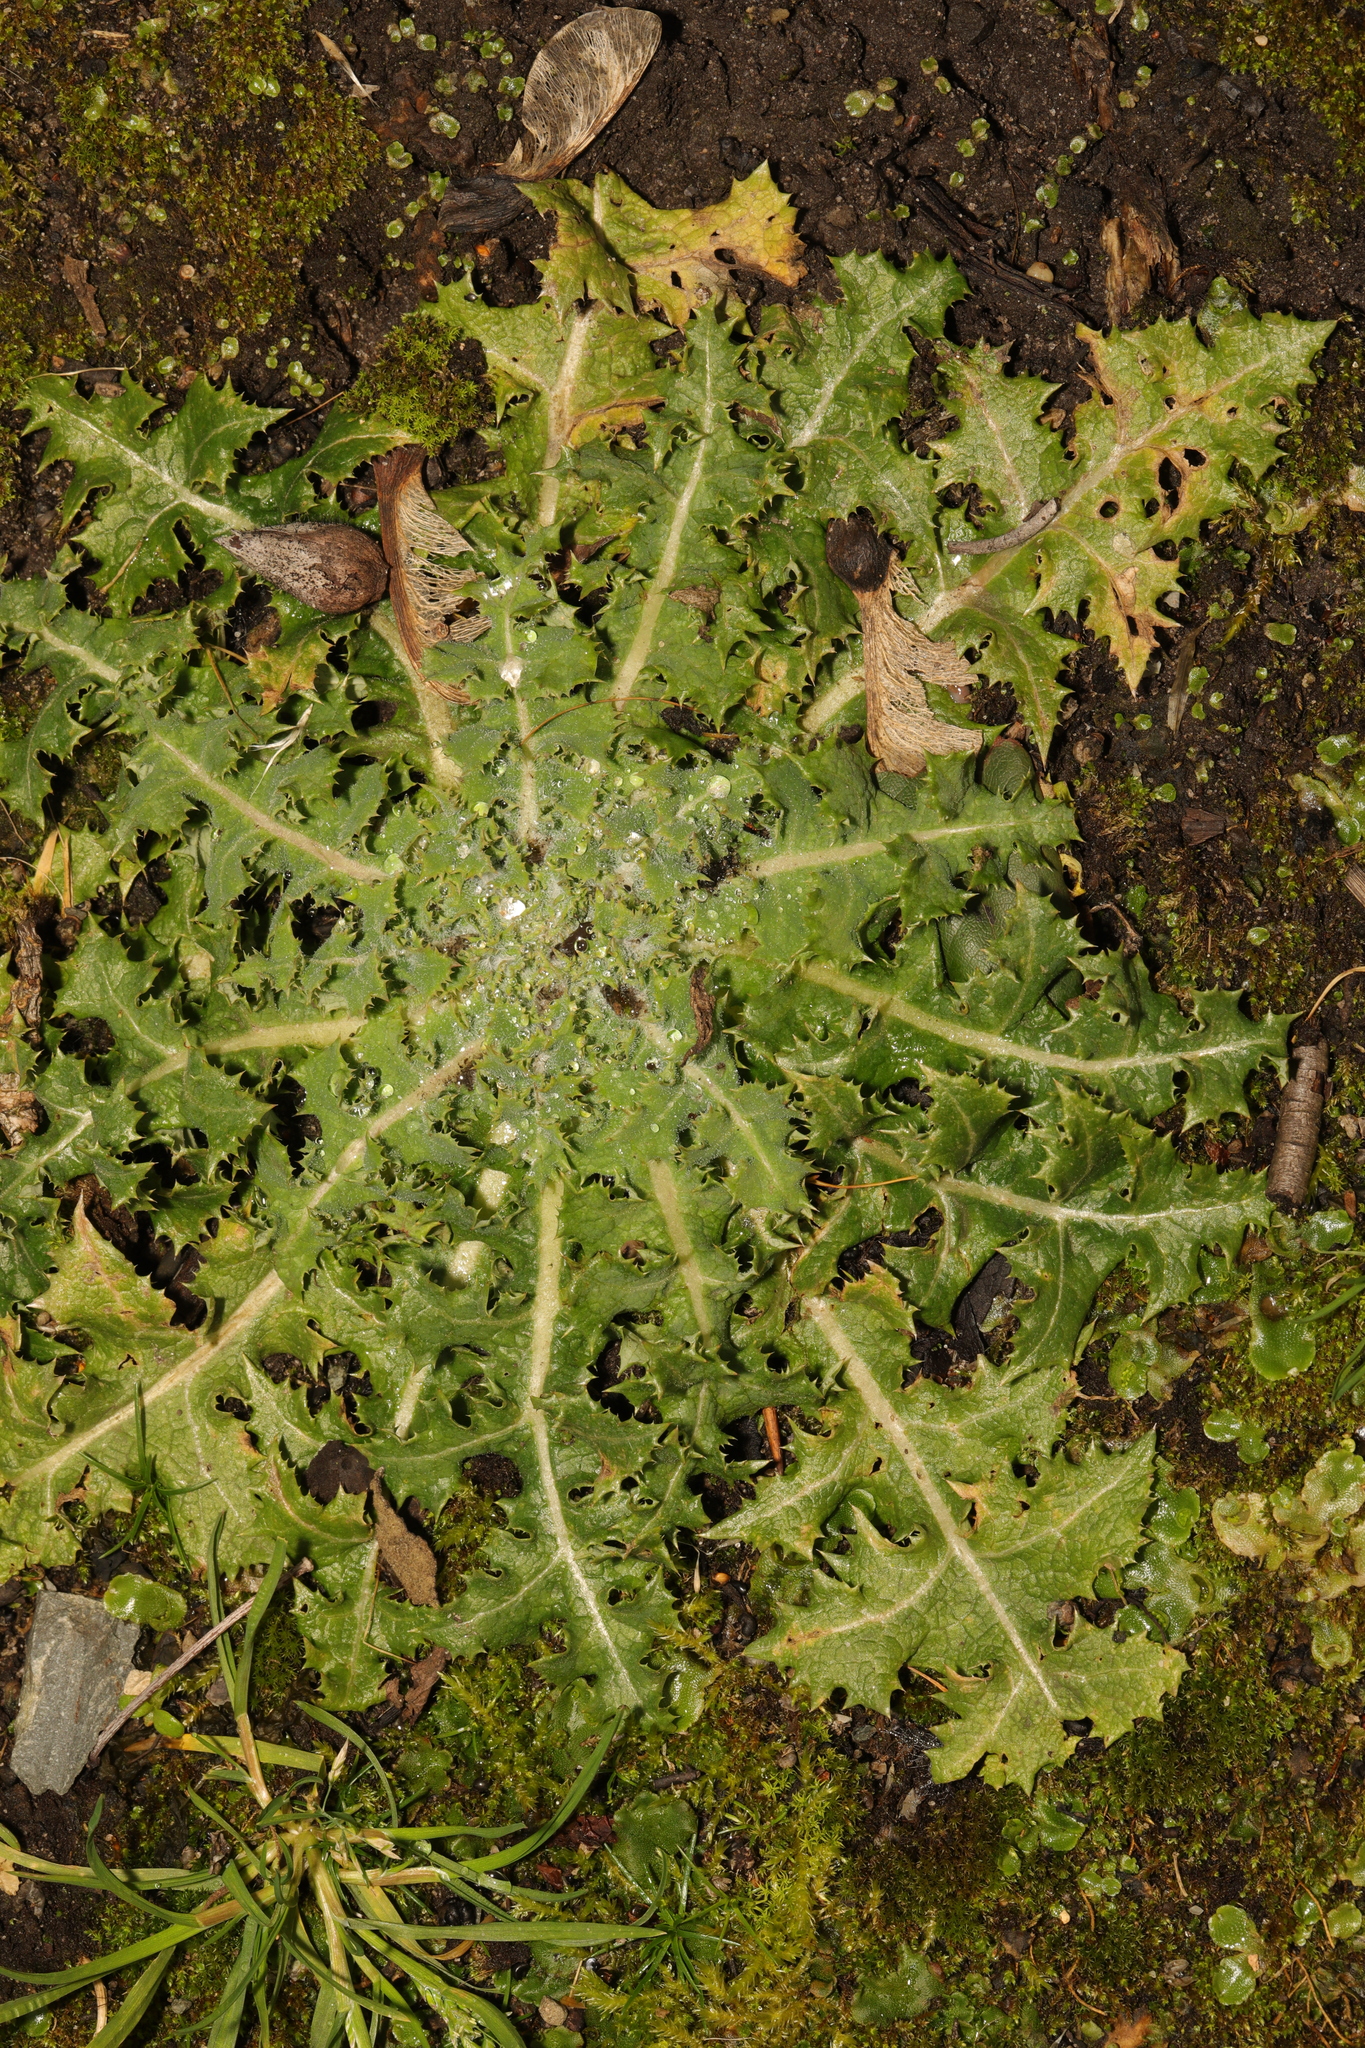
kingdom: Plantae
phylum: Tracheophyta
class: Magnoliopsida
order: Asterales
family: Asteraceae
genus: Sonchus
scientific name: Sonchus asper
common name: Prickly sow-thistle
